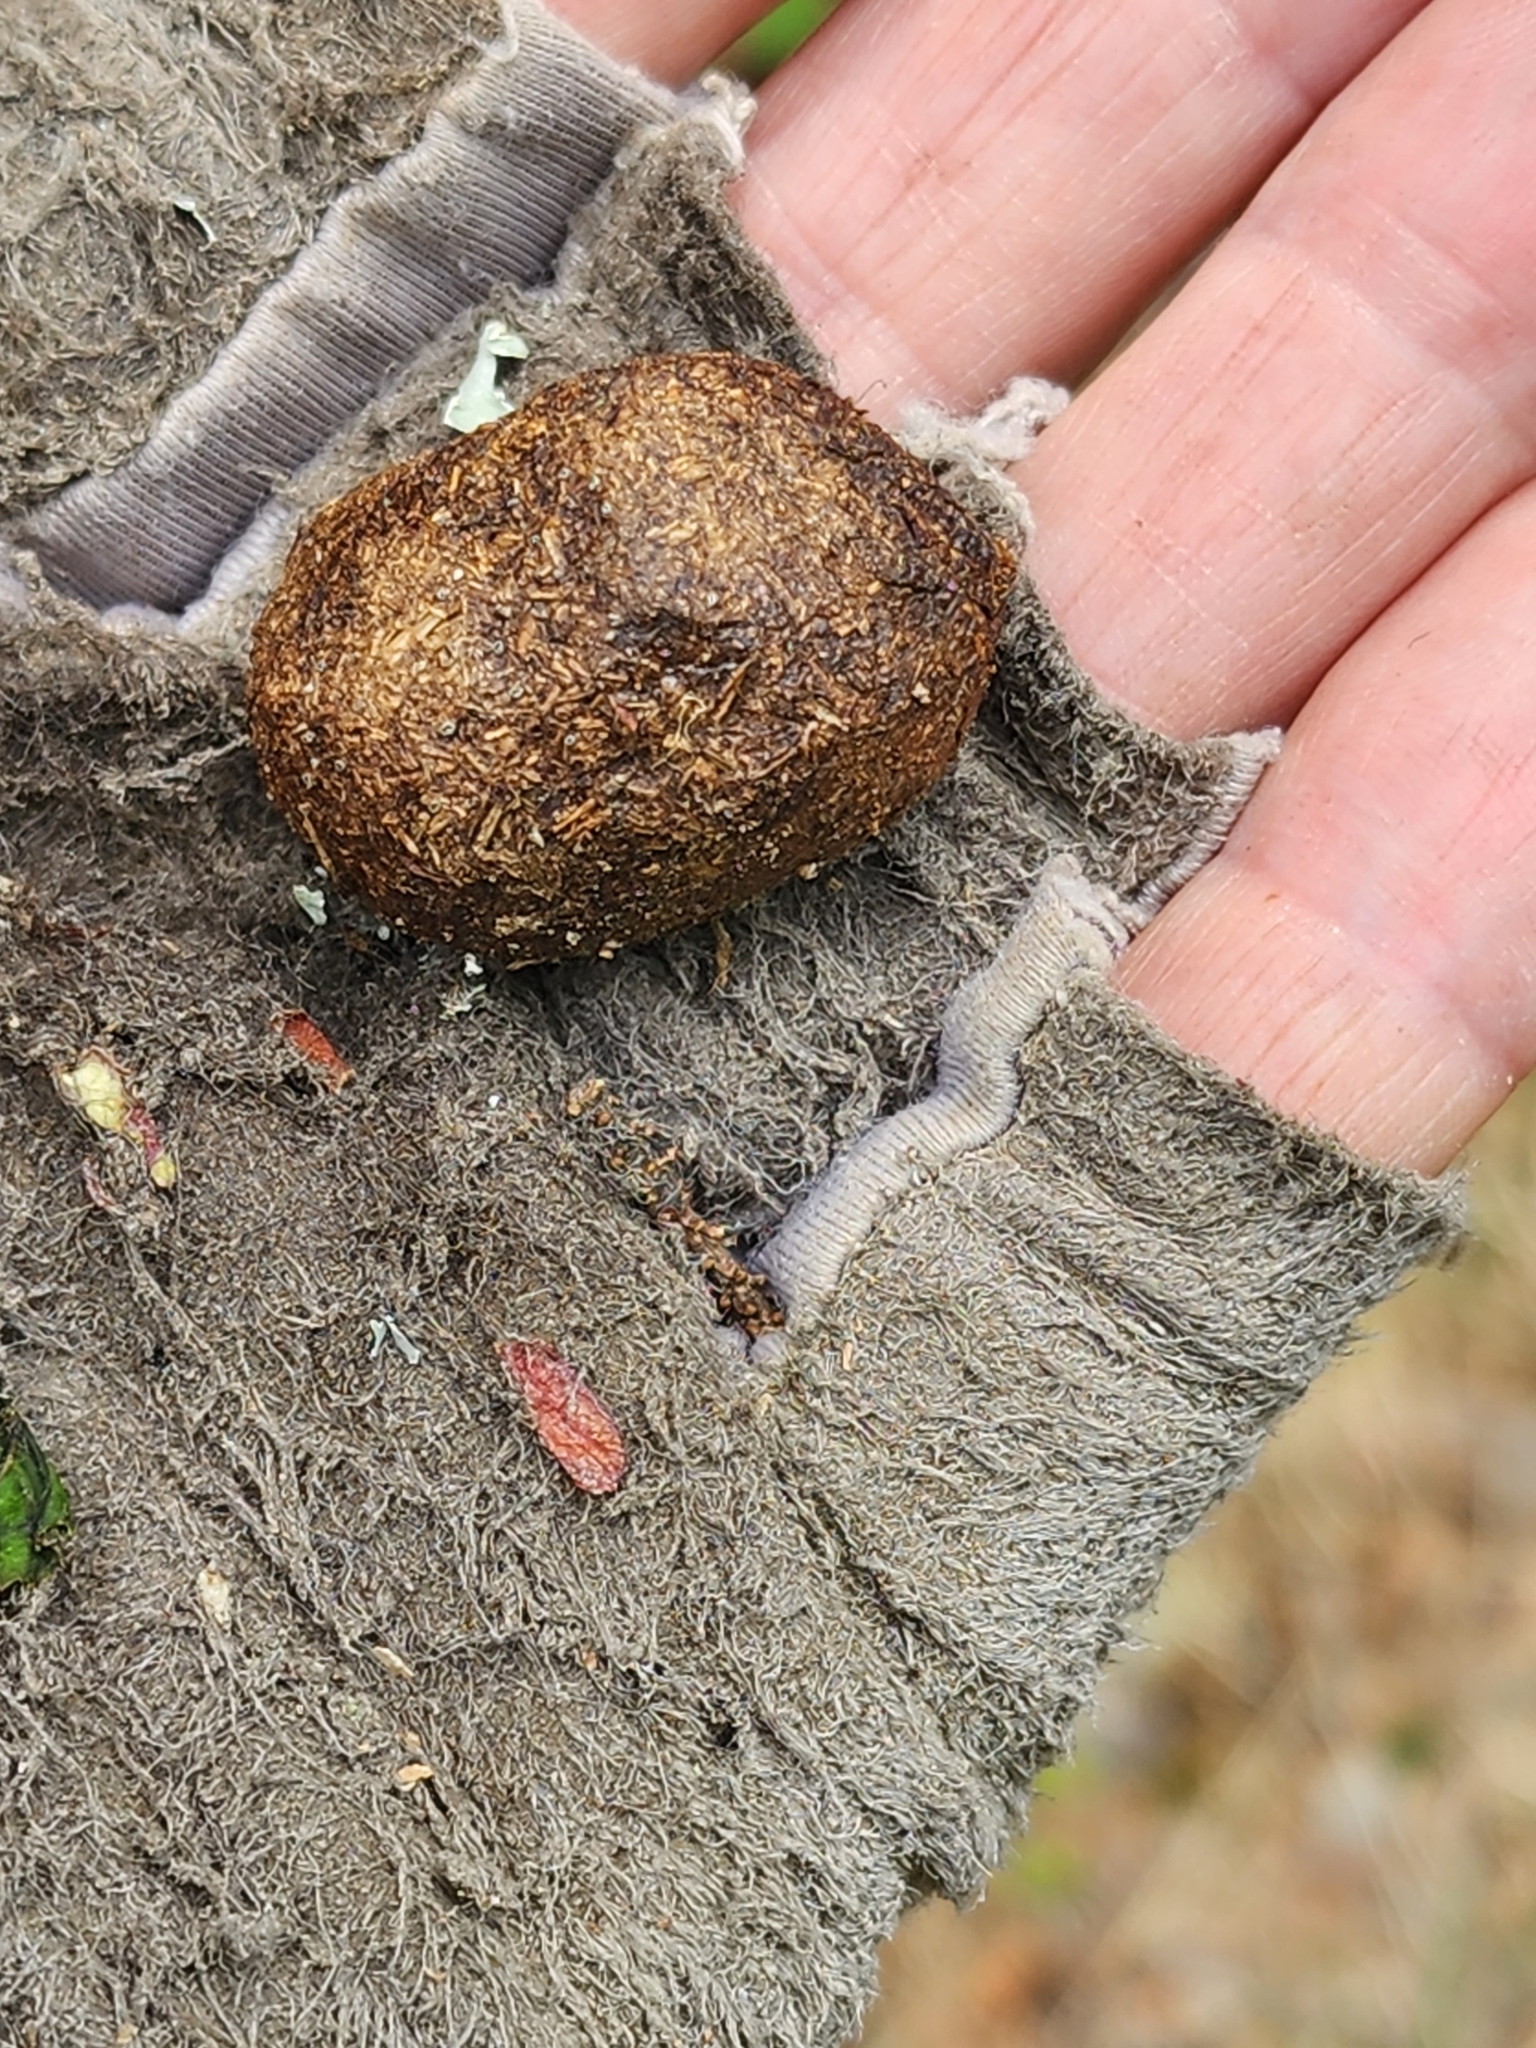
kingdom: Animalia
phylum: Chordata
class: Mammalia
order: Artiodactyla
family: Cervidae
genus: Alces
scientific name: Alces alces
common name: Moose
